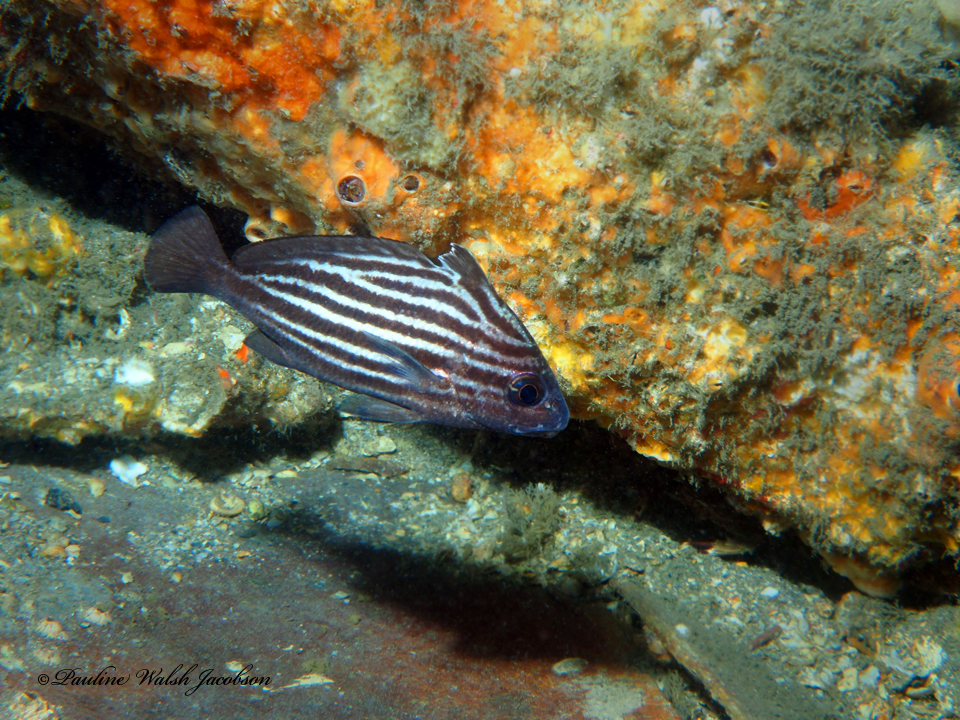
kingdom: Animalia
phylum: Chordata
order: Perciformes
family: Sciaenidae
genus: Pareques
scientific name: Pareques acuminatus
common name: High-hat
